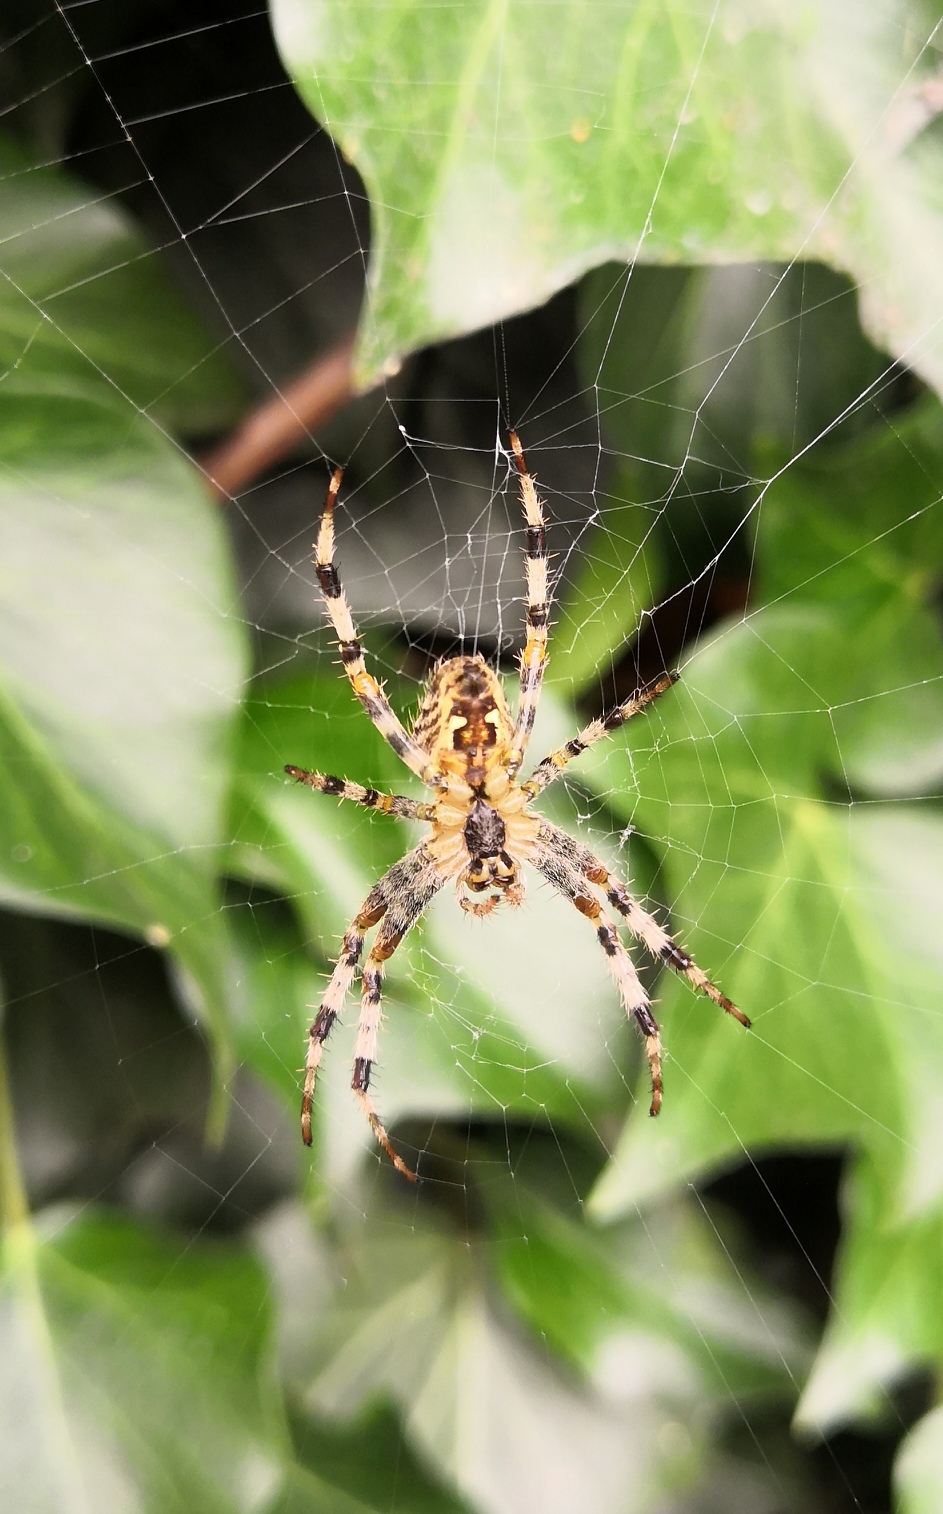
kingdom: Animalia
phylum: Arthropoda
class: Arachnida
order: Araneae
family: Araneidae
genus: Araneus
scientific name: Araneus diadematus
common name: Cross orbweaver
